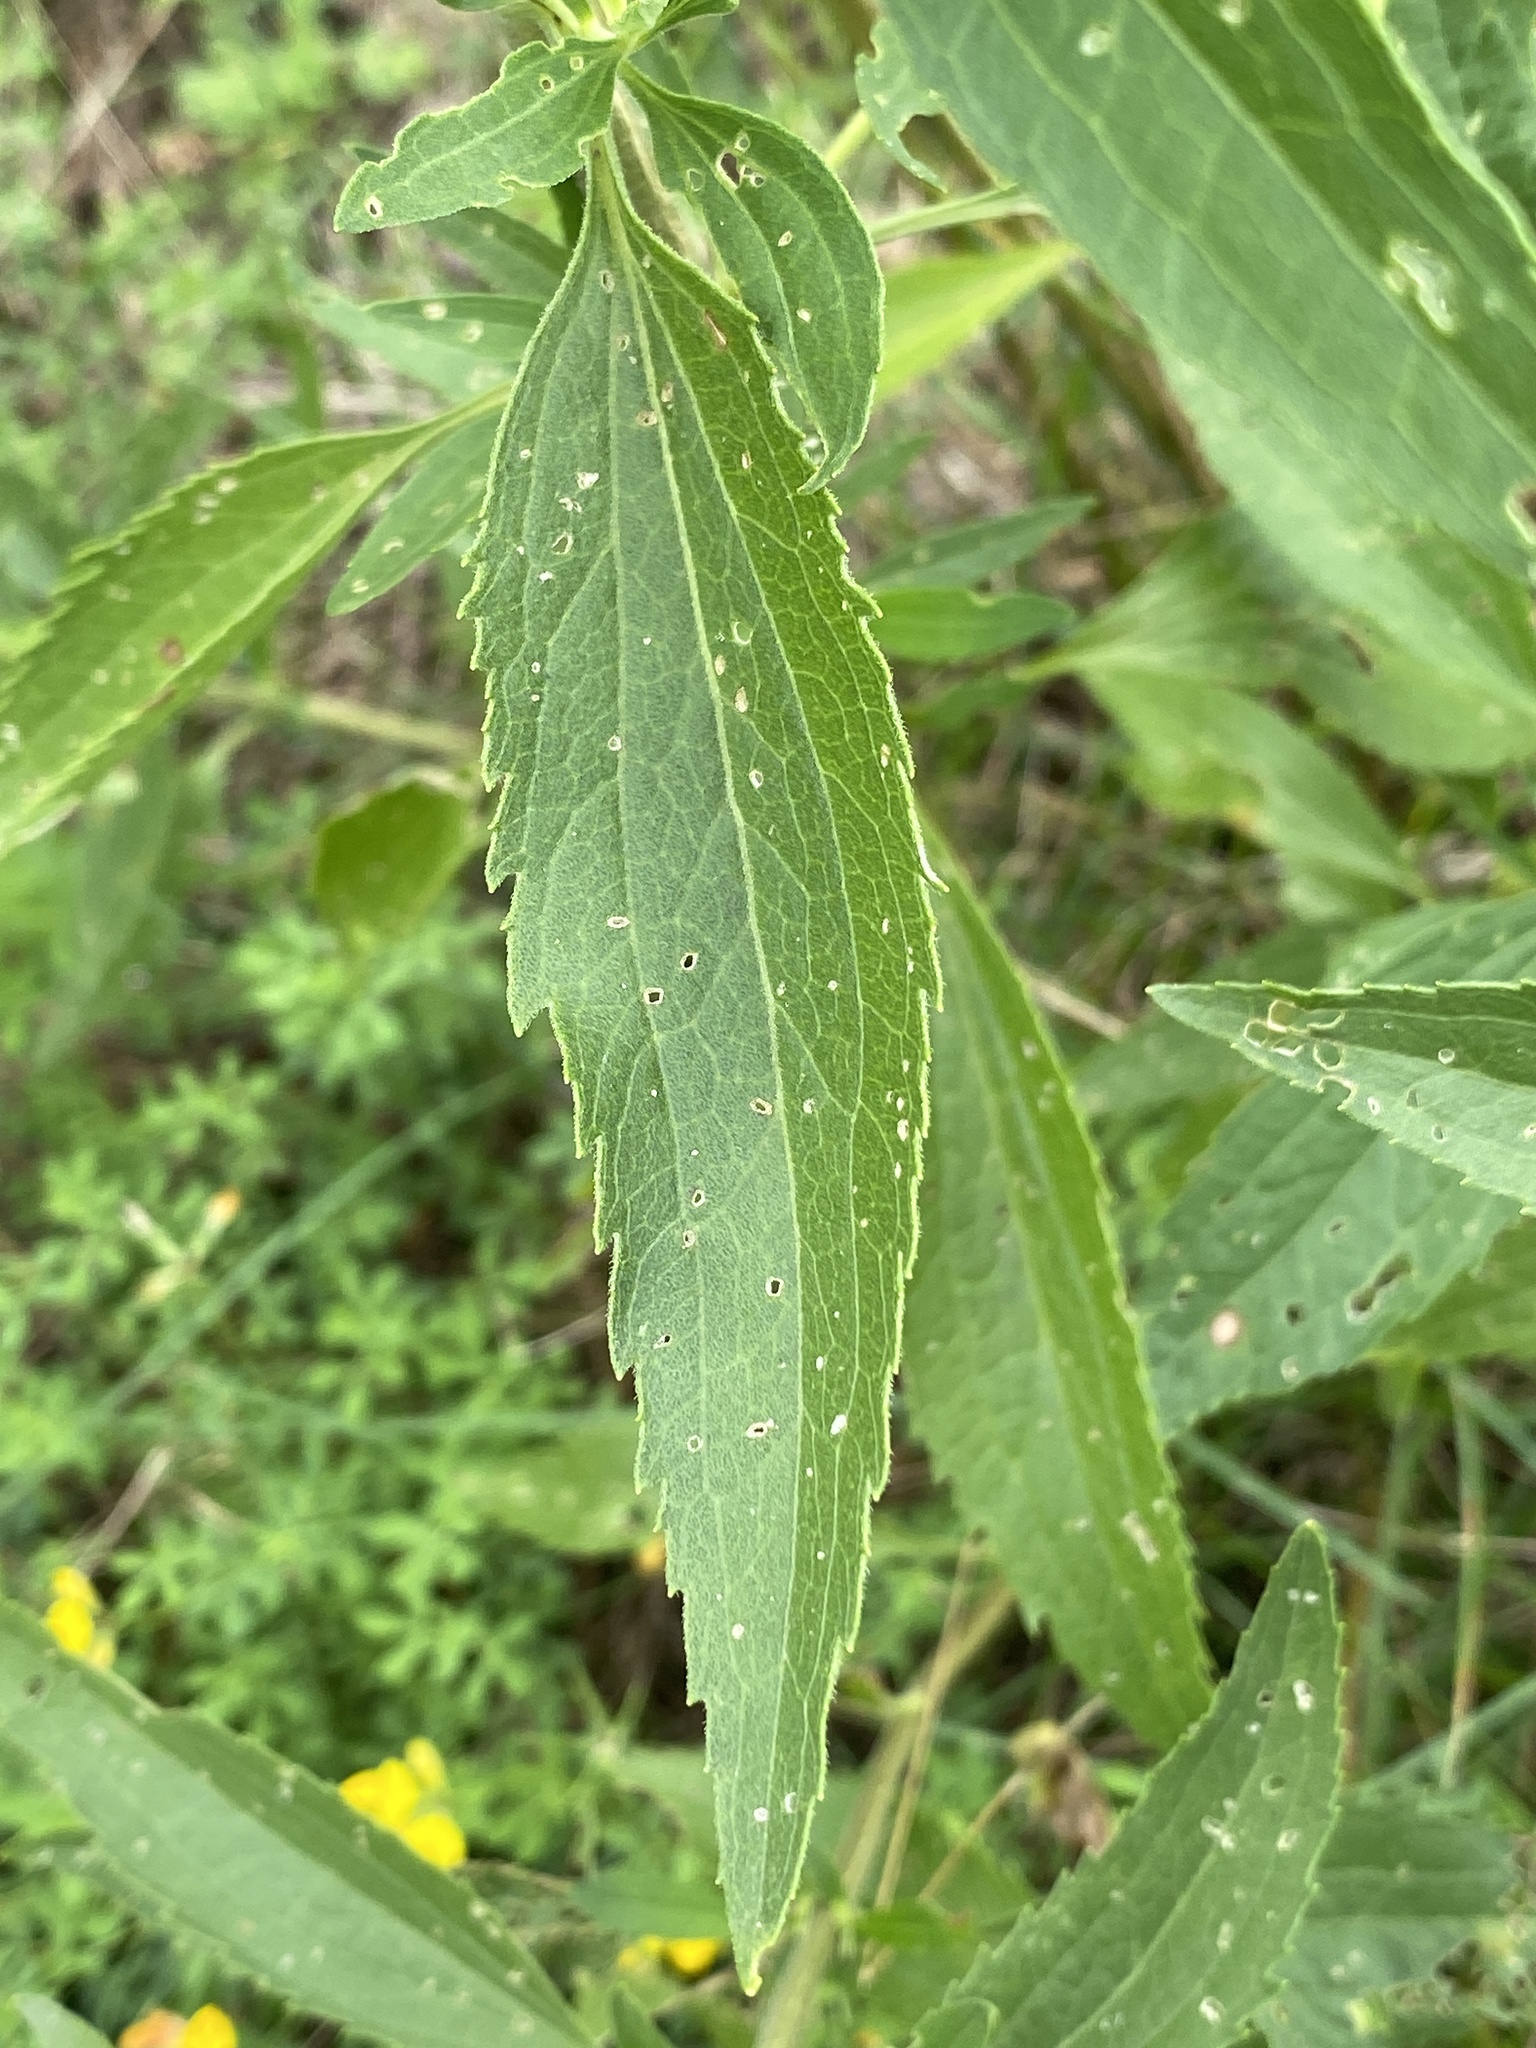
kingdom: Plantae
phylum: Tracheophyta
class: Magnoliopsida
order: Asterales
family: Asteraceae
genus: Eupatorium
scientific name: Eupatorium serotinum
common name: Late boneset
